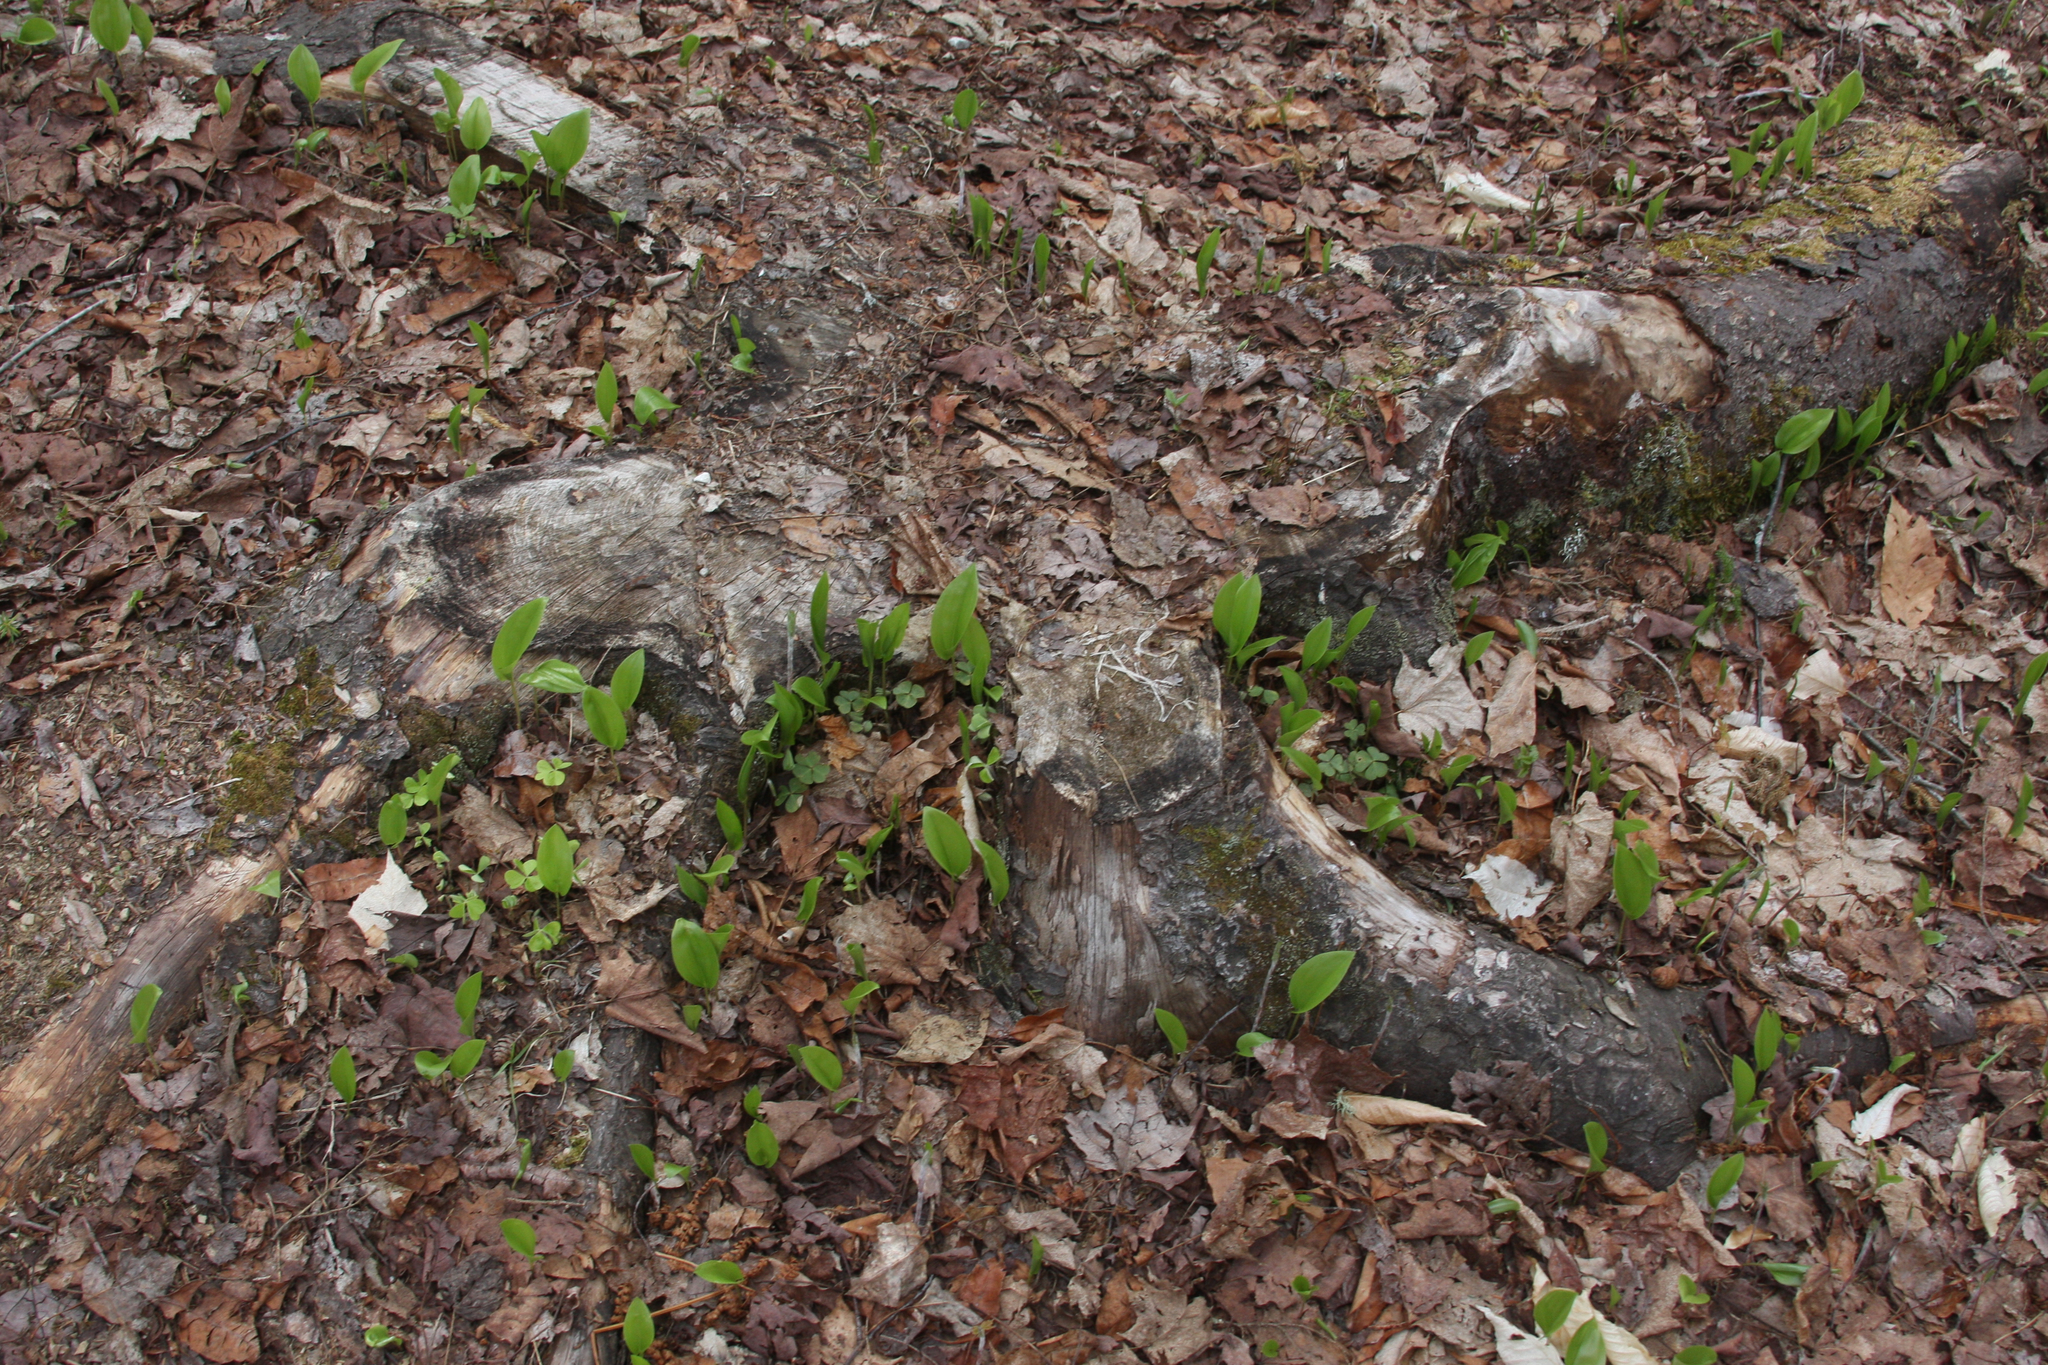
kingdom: Plantae
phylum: Tracheophyta
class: Liliopsida
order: Asparagales
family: Asparagaceae
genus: Maianthemum
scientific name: Maianthemum canadense
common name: False lily-of-the-valley
